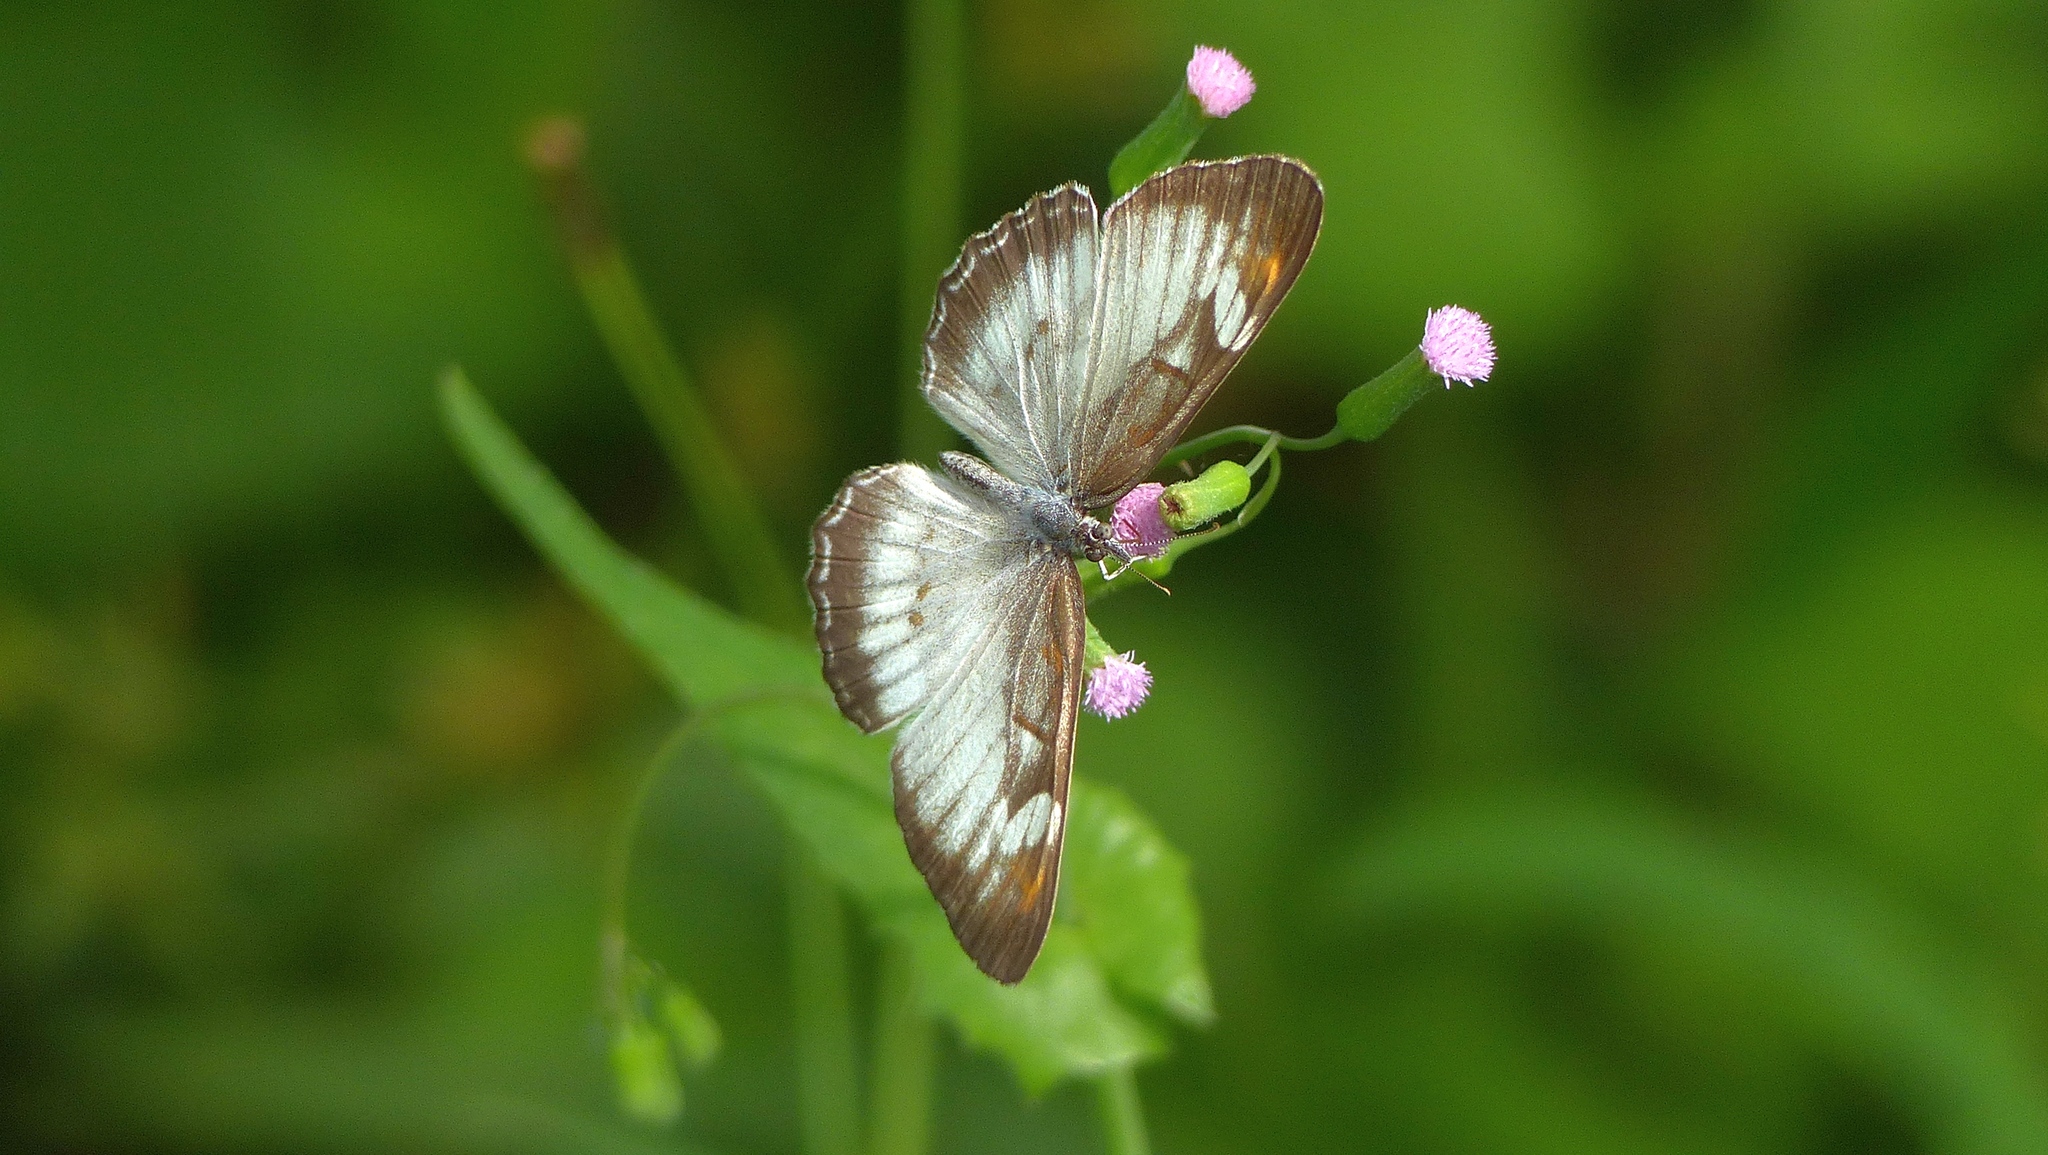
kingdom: Animalia
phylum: Arthropoda
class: Insecta
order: Lepidoptera
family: Nymphalidae
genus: Mestra
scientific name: Mestra hersilia
